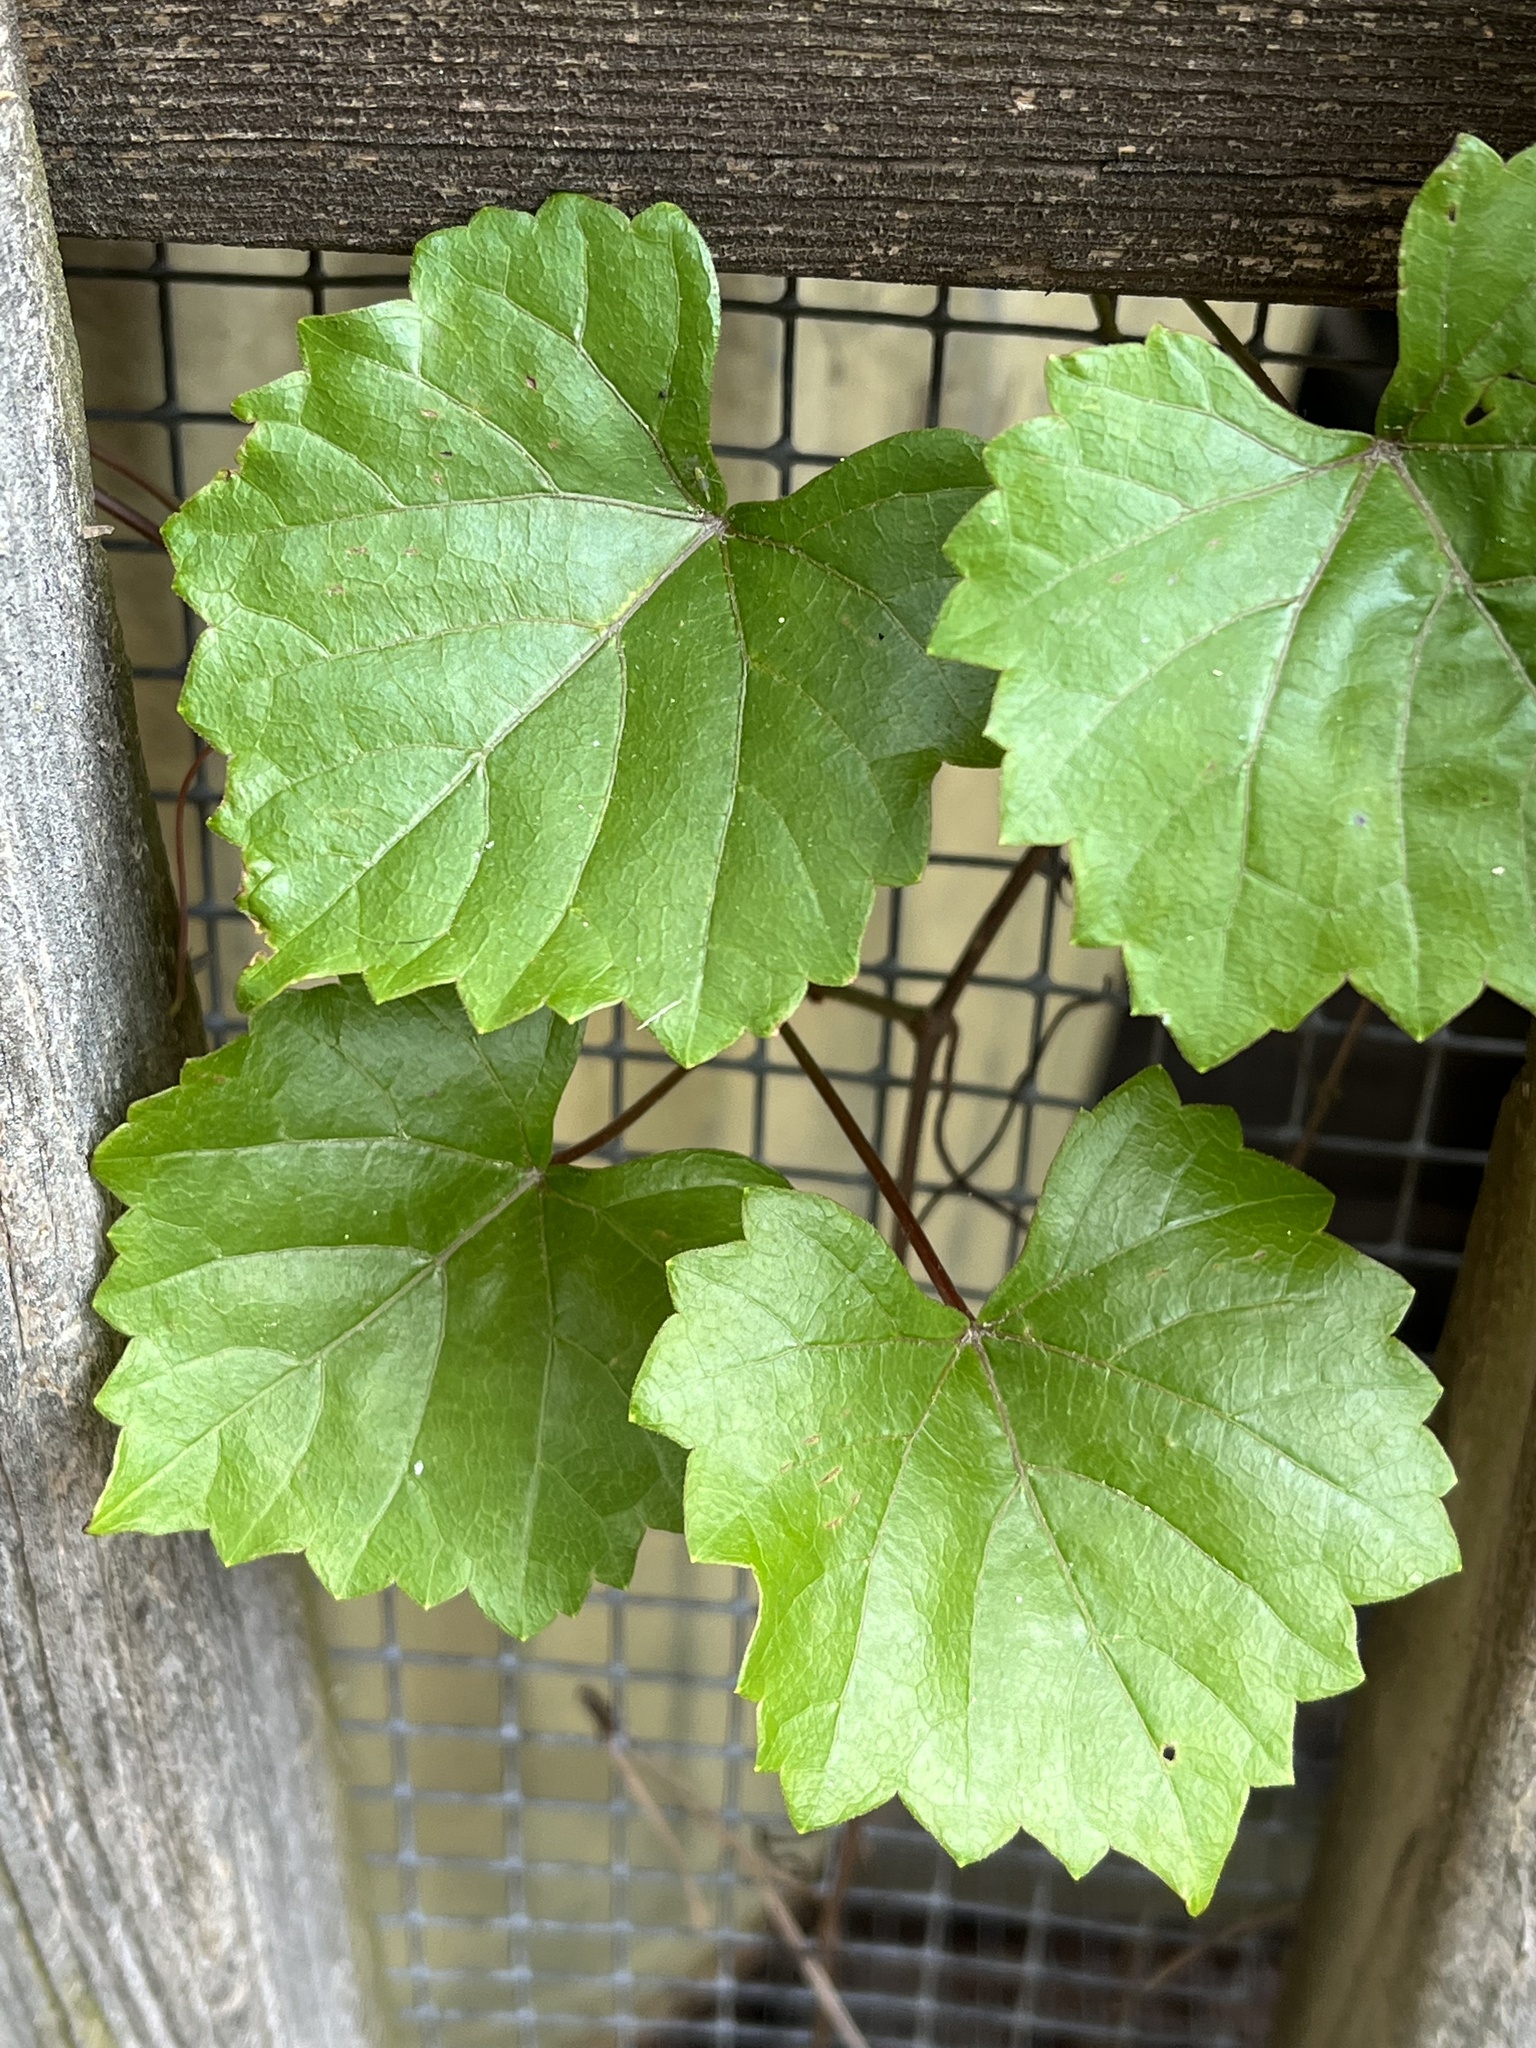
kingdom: Plantae
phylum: Tracheophyta
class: Magnoliopsida
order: Vitales
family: Vitaceae
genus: Vitis
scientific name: Vitis rotundifolia
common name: Muscadine grape
